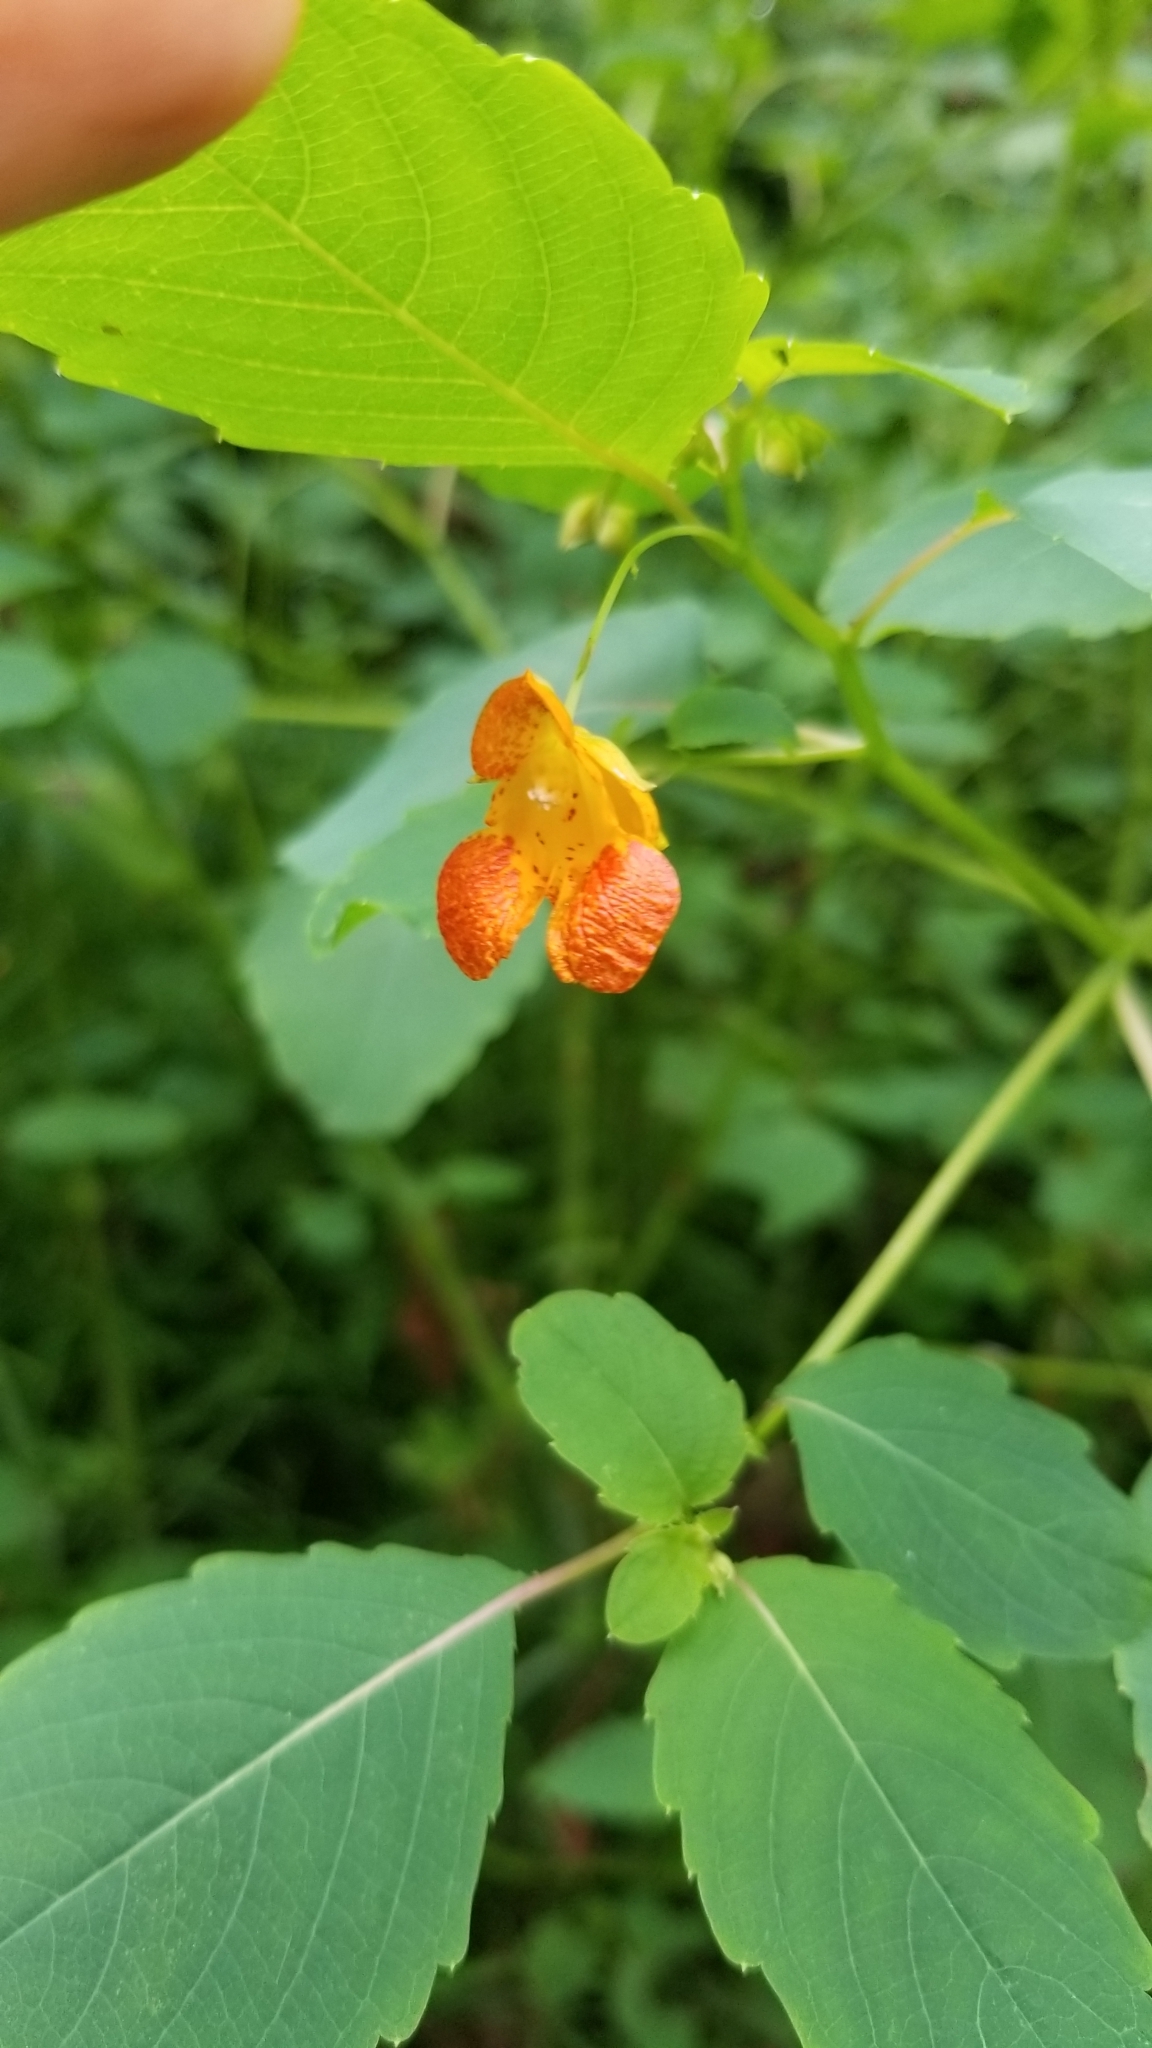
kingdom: Plantae
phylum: Tracheophyta
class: Magnoliopsida
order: Ericales
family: Balsaminaceae
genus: Impatiens
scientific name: Impatiens capensis
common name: Orange balsam
